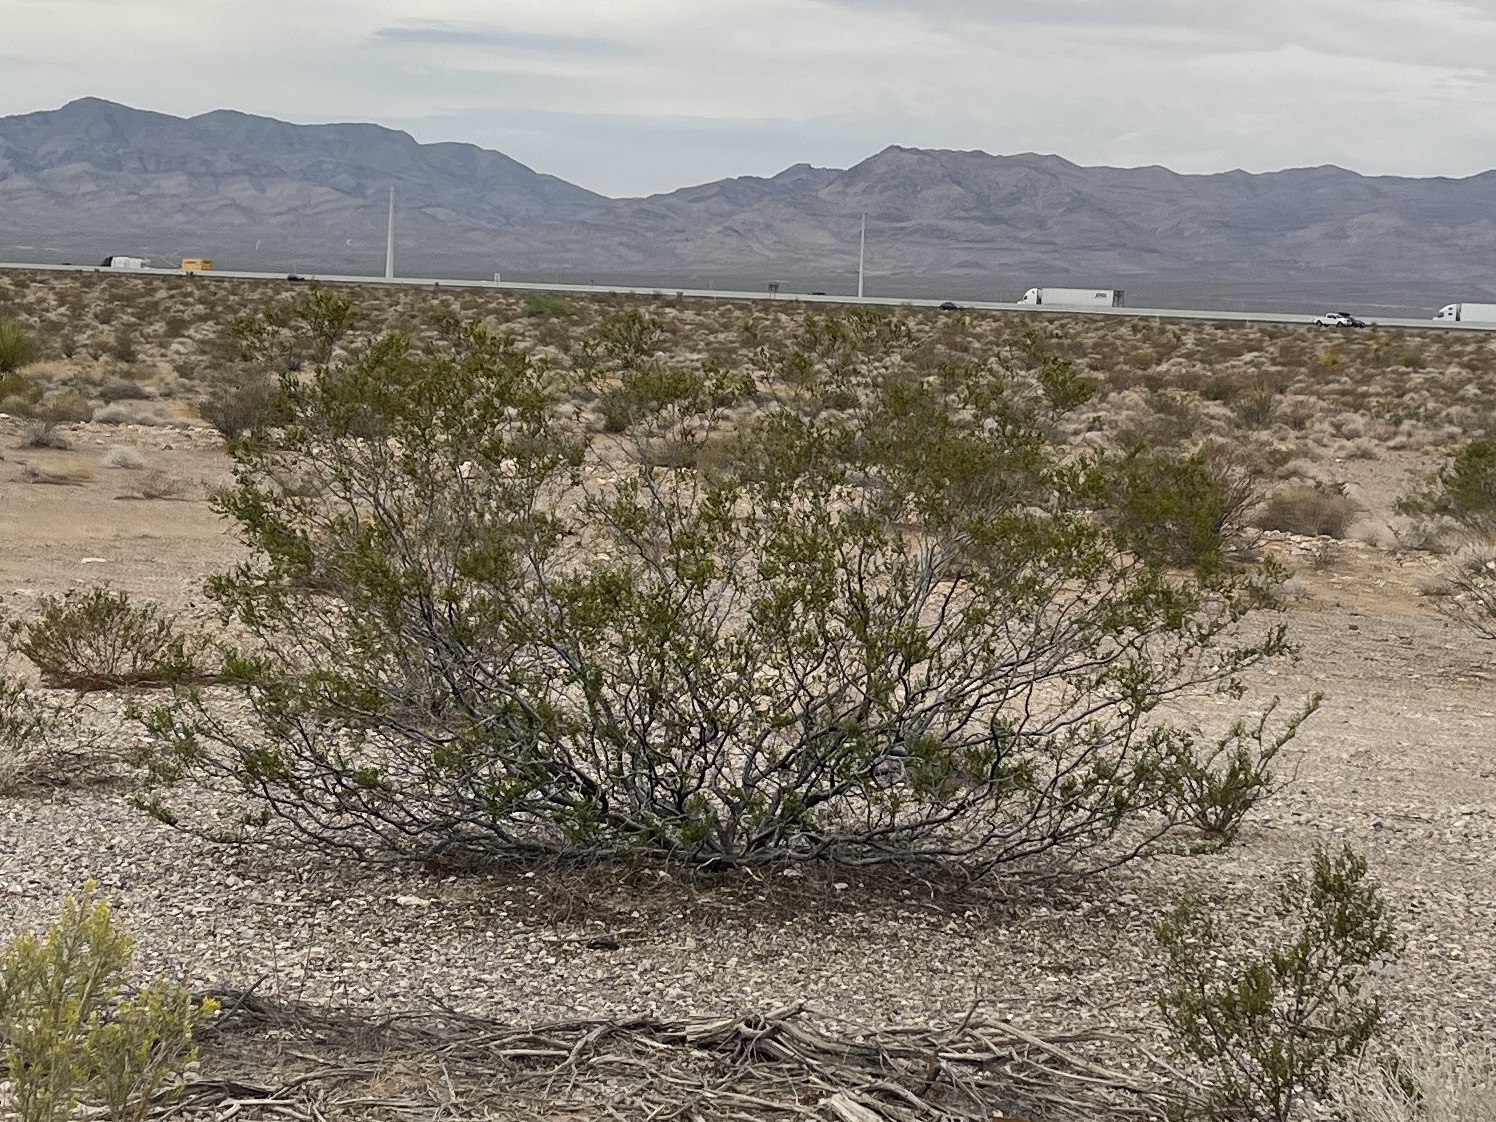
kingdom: Plantae
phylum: Tracheophyta
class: Magnoliopsida
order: Zygophyllales
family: Zygophyllaceae
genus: Larrea
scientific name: Larrea tridentata
